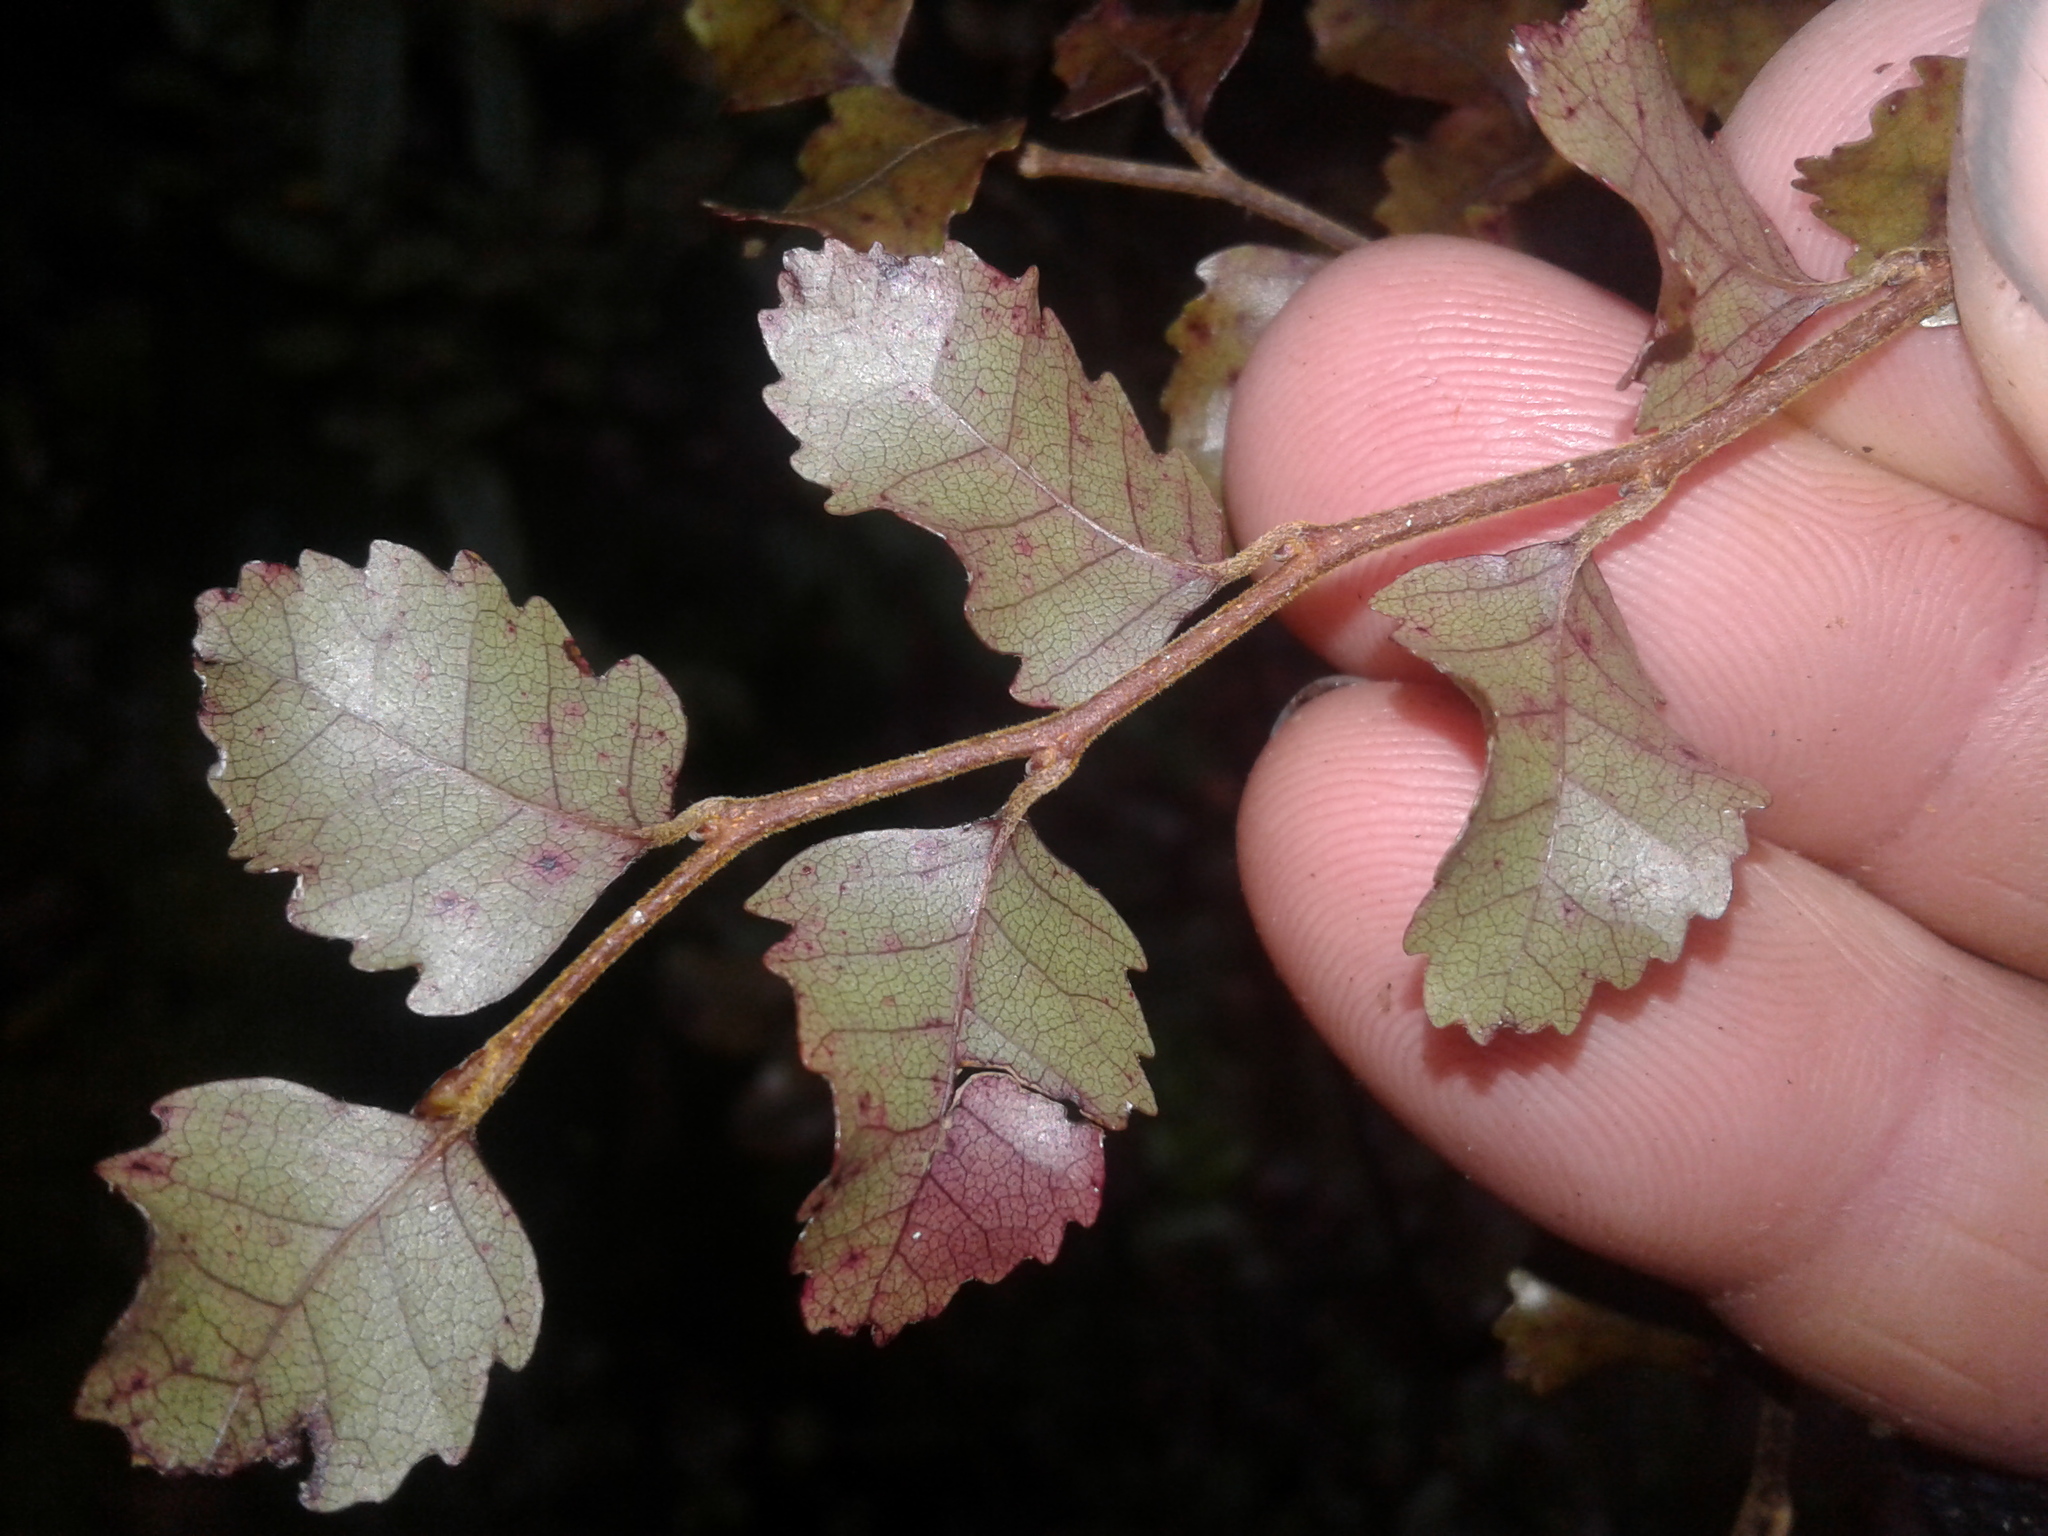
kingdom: Plantae
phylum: Tracheophyta
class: Magnoliopsida
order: Fagales
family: Nothofagaceae
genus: Nothofagus
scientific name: Nothofagus fusca
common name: Red beech
